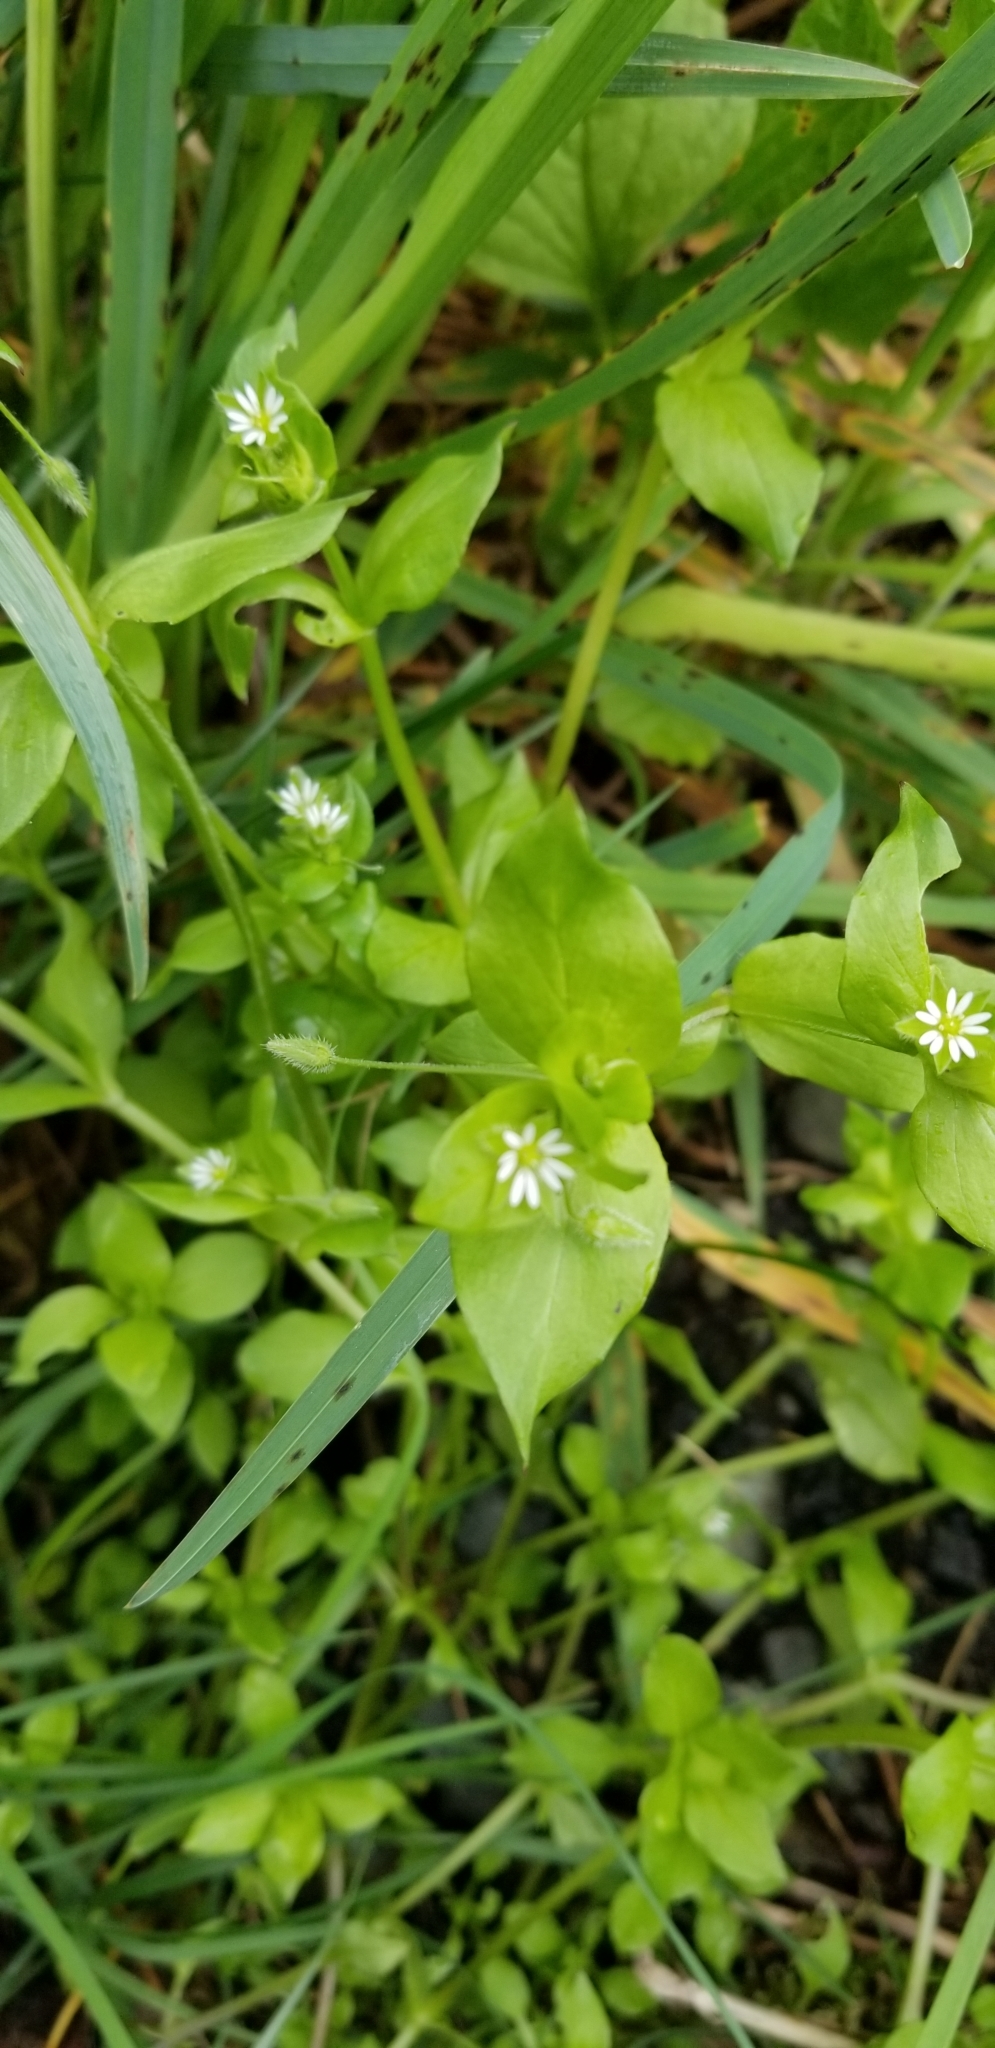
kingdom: Plantae
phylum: Tracheophyta
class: Magnoliopsida
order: Caryophyllales
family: Caryophyllaceae
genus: Stellaria
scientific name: Stellaria media
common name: Common chickweed
